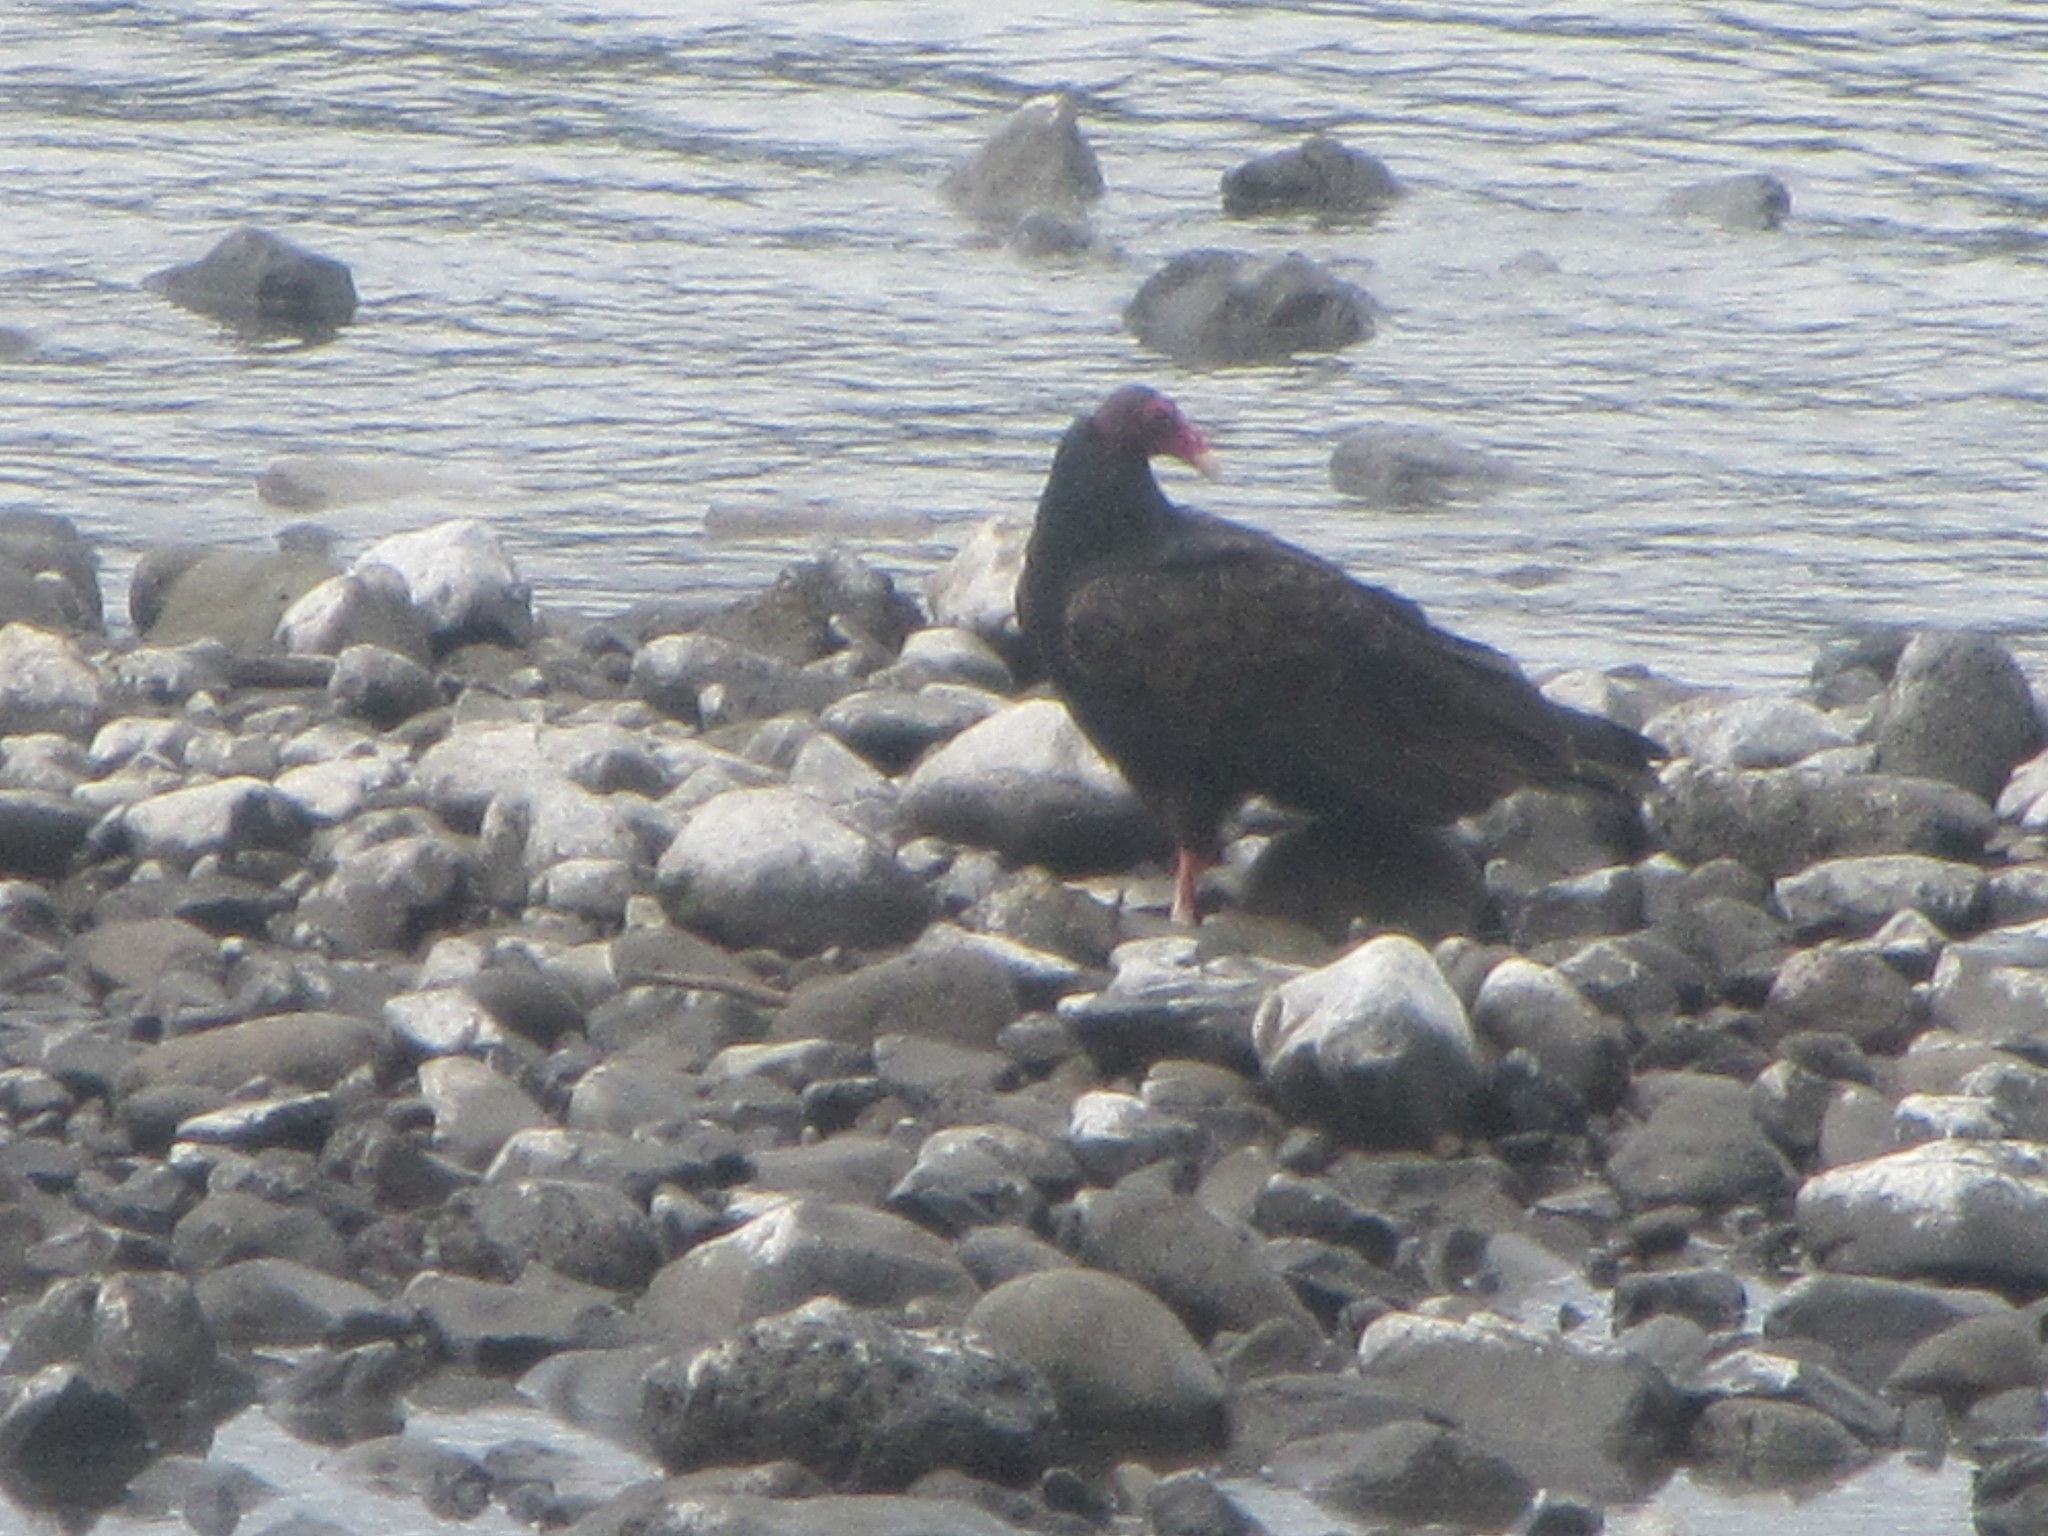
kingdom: Animalia
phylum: Chordata
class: Aves
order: Accipitriformes
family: Cathartidae
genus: Cathartes
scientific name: Cathartes aura
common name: Turkey vulture
